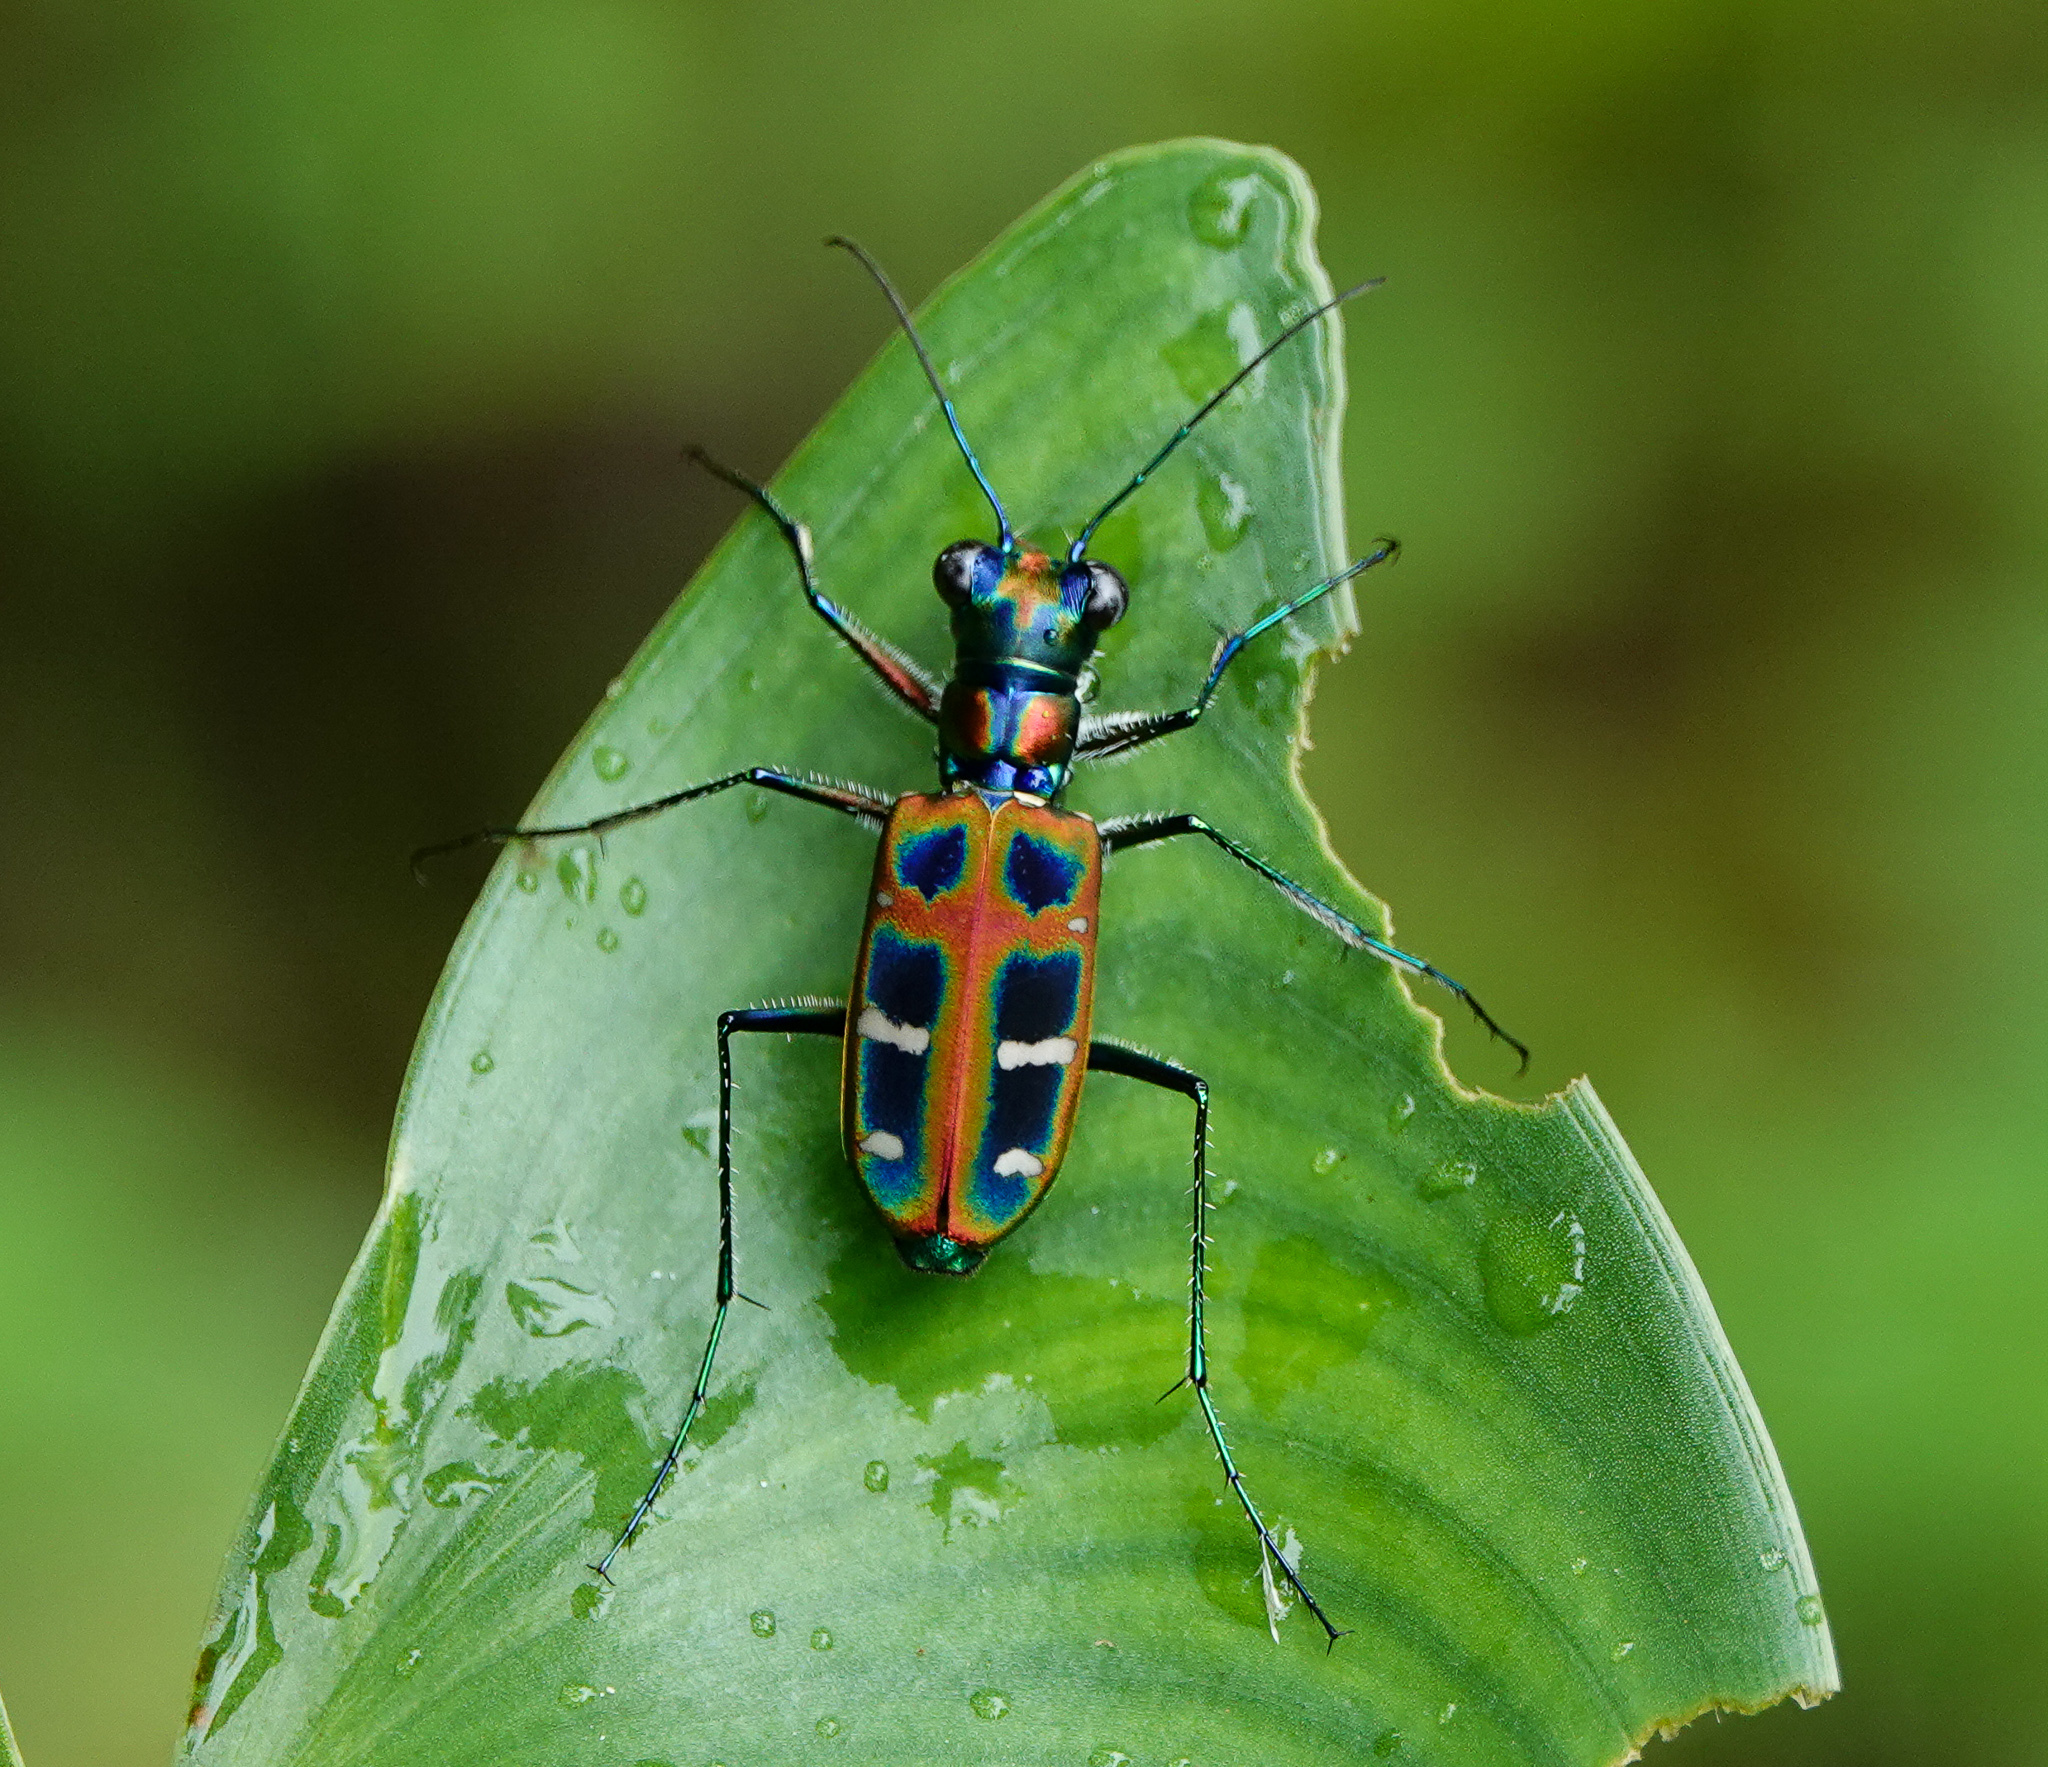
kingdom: Animalia
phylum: Arthropoda
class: Insecta
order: Coleoptera
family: Carabidae
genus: Cicindela
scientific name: Cicindela barmanica
